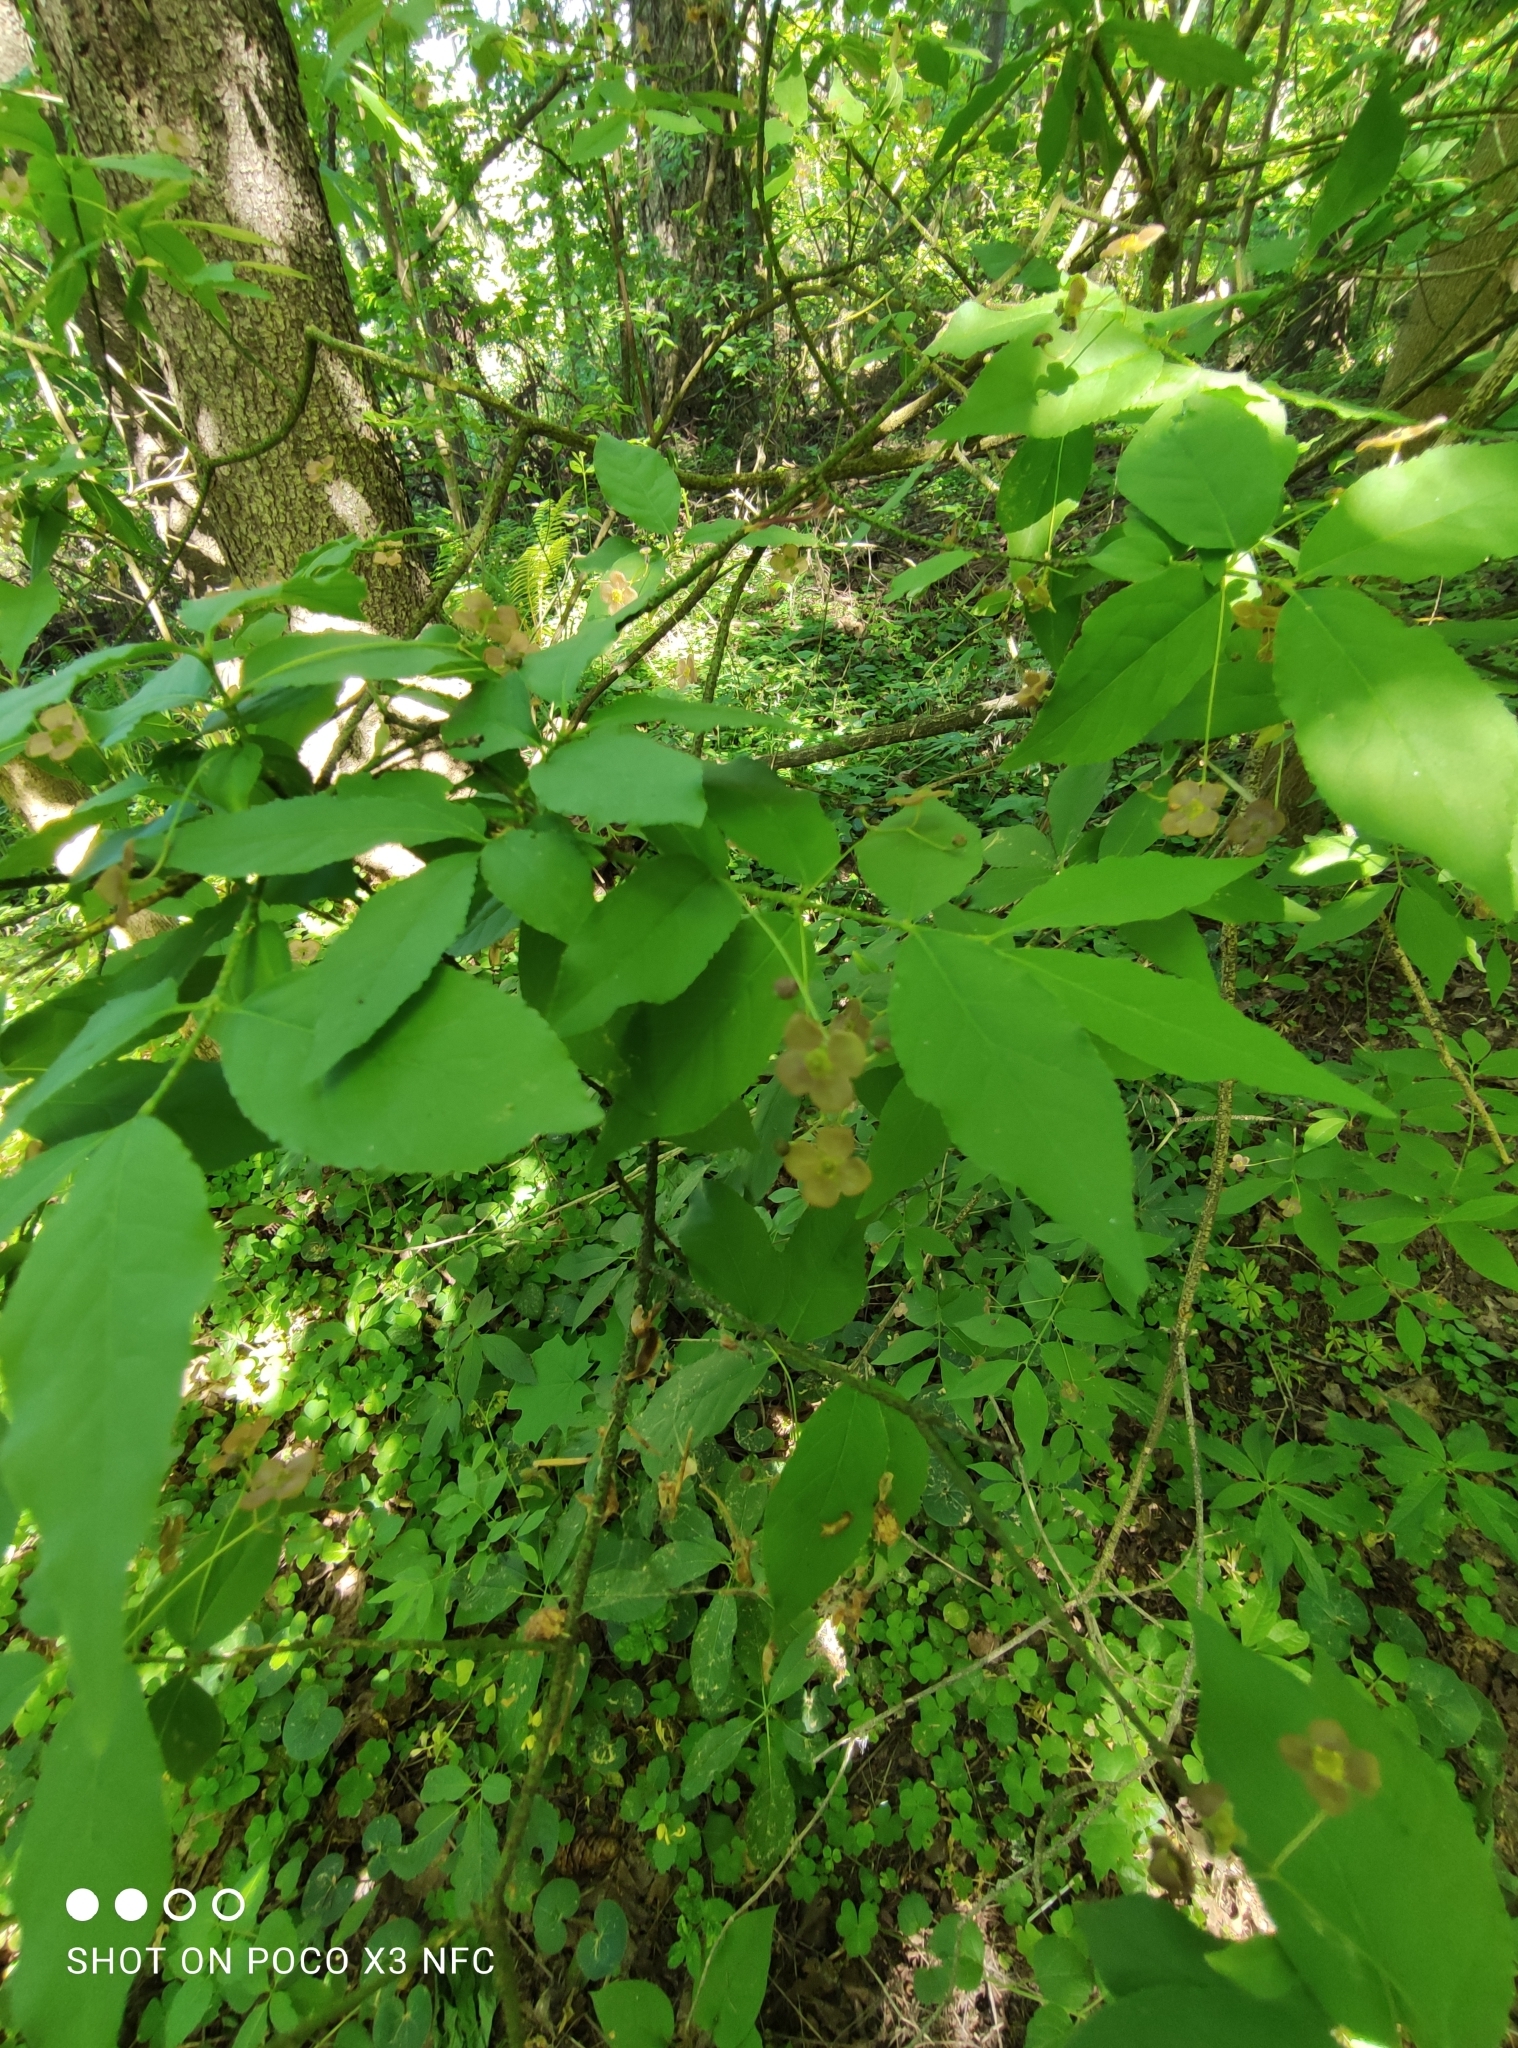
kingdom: Plantae
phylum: Tracheophyta
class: Magnoliopsida
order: Celastrales
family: Celastraceae
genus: Euonymus
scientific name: Euonymus verrucosus
